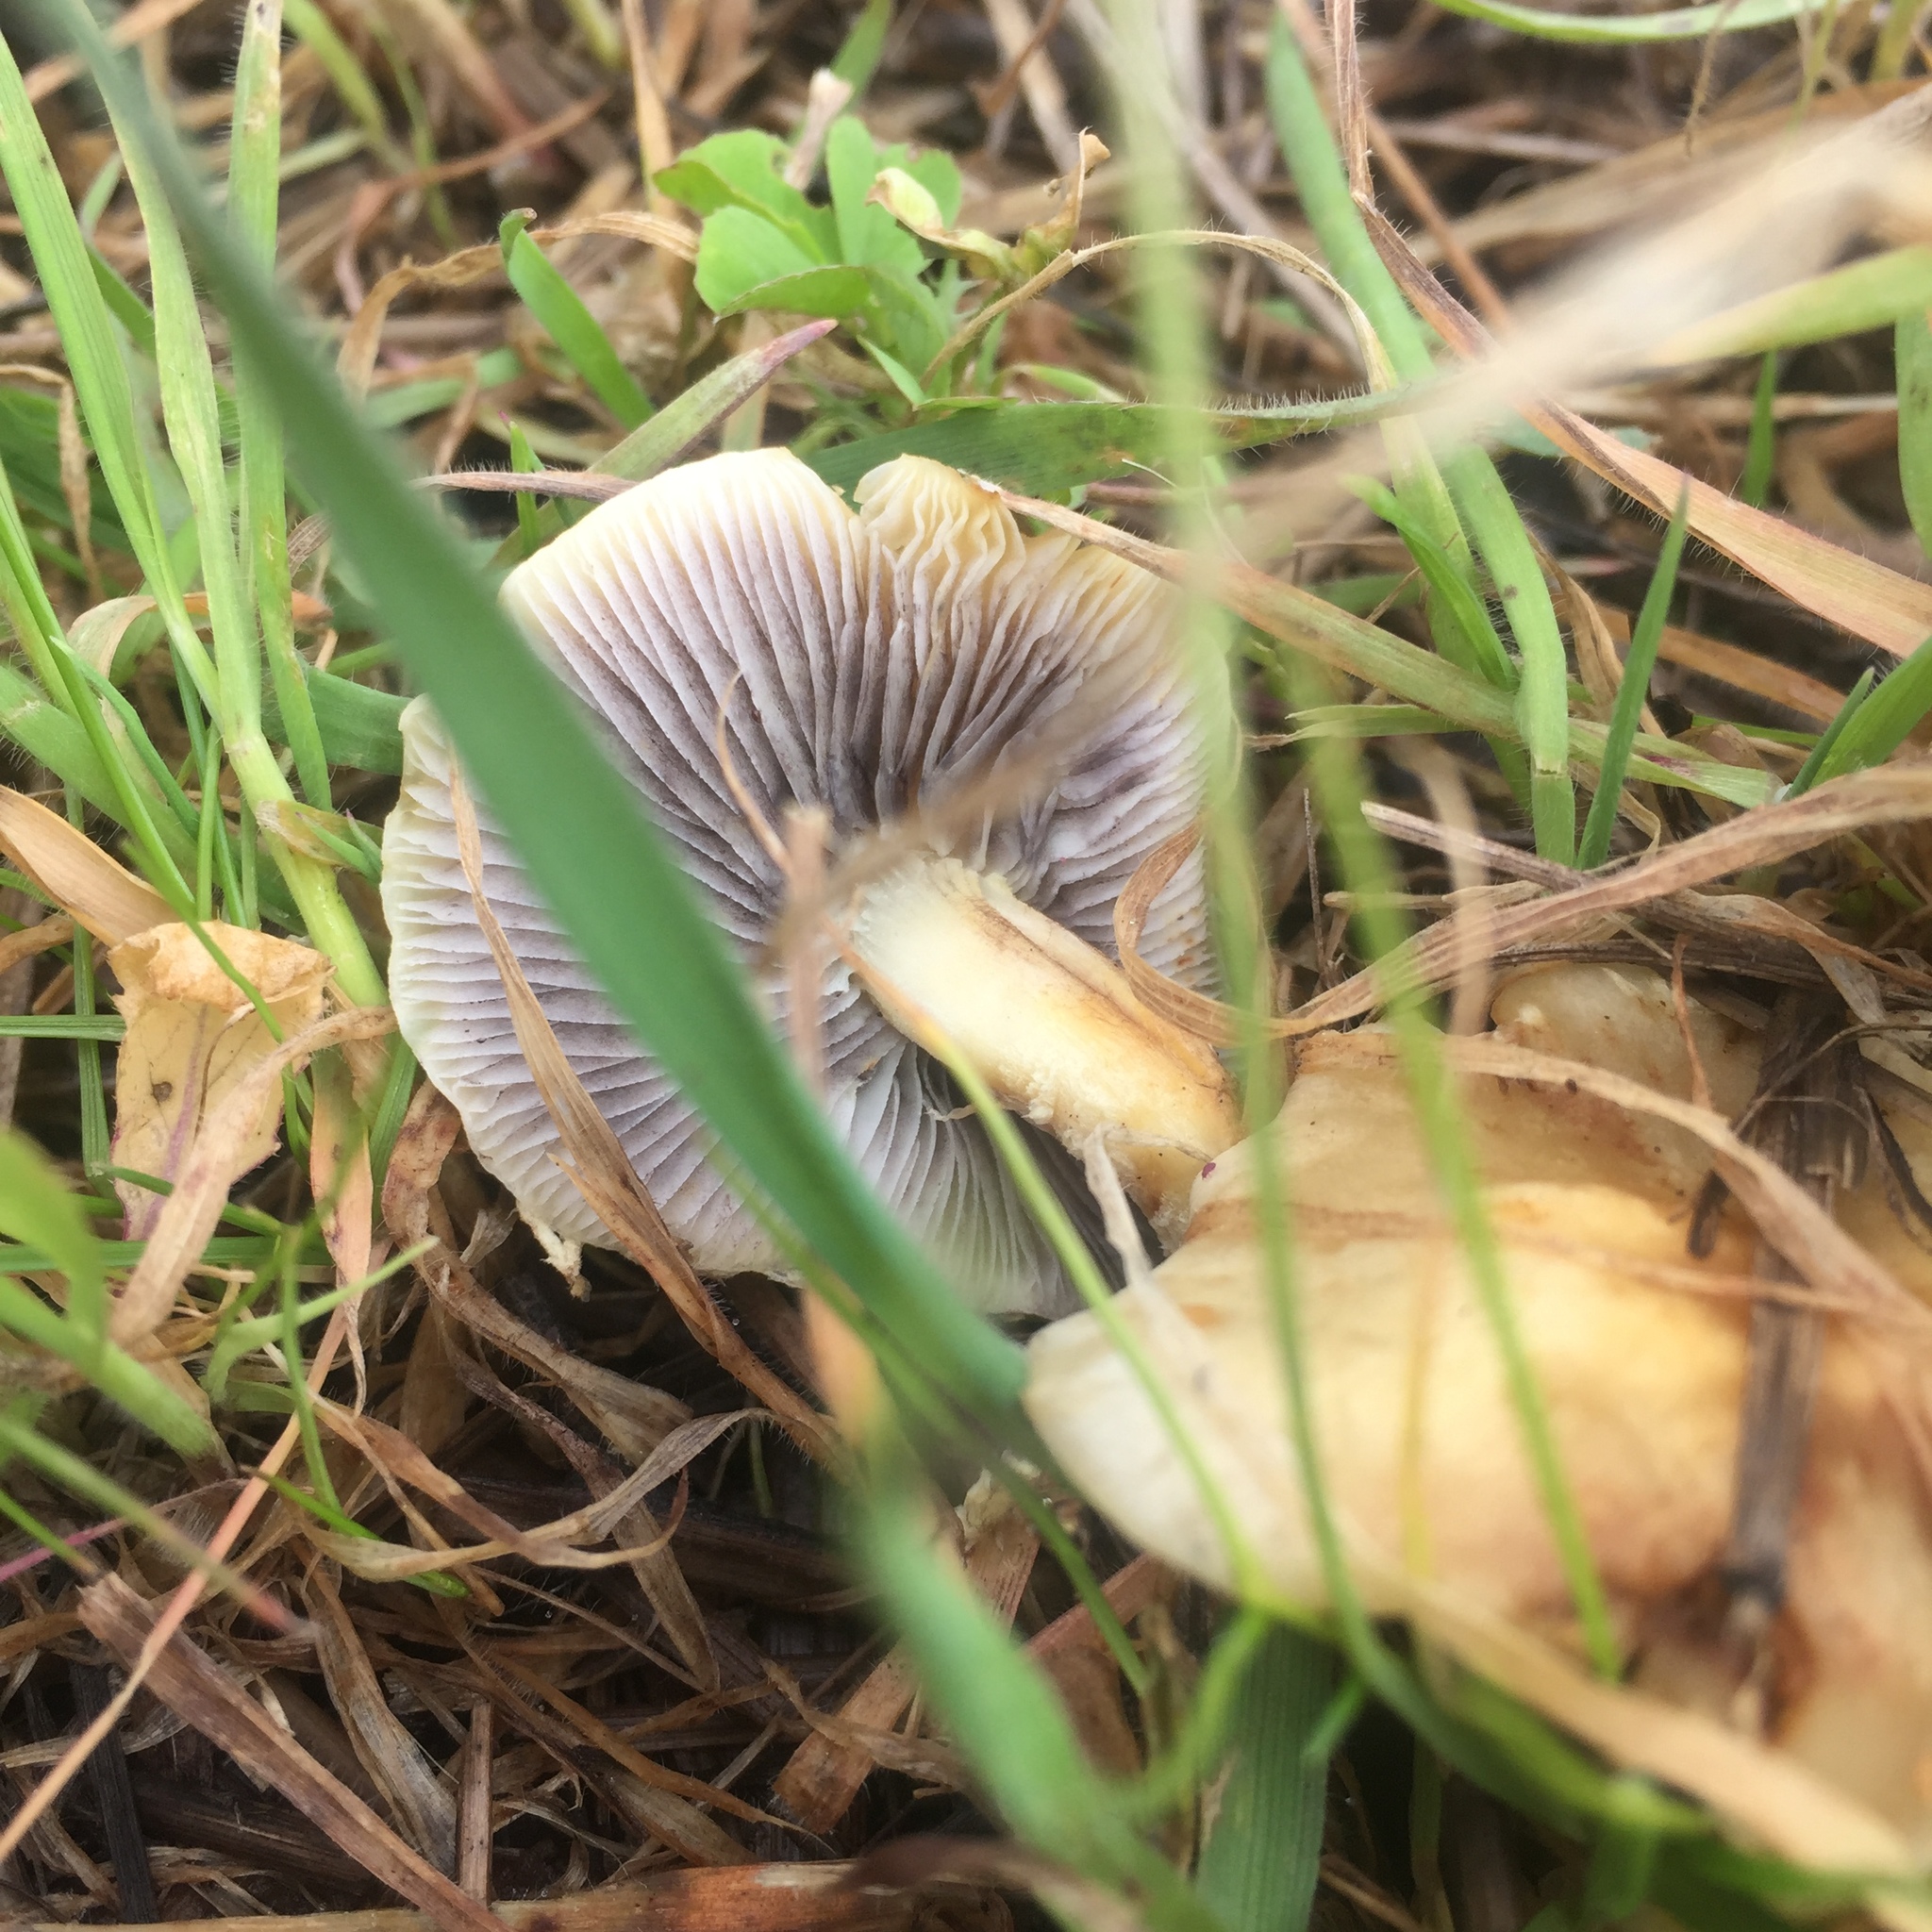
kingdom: Fungi
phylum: Basidiomycota
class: Agaricomycetes
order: Agaricales
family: Strophariaceae
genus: Leratiomyces
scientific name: Leratiomyces percevalii
